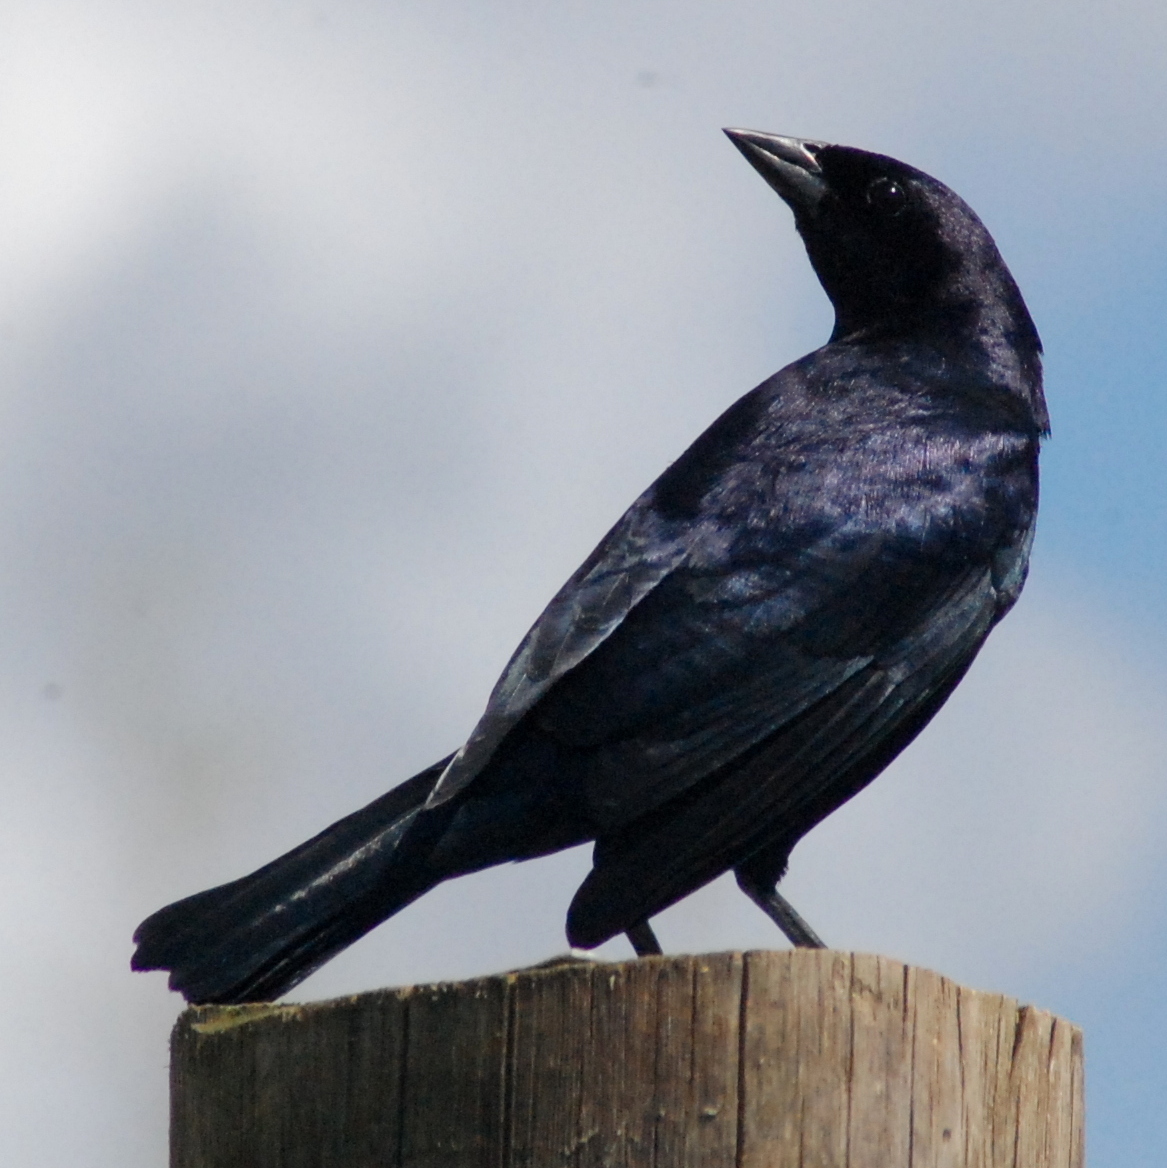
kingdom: Animalia
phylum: Chordata
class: Aves
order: Passeriformes
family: Icteridae
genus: Molothrus
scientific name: Molothrus bonariensis
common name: Shiny cowbird
